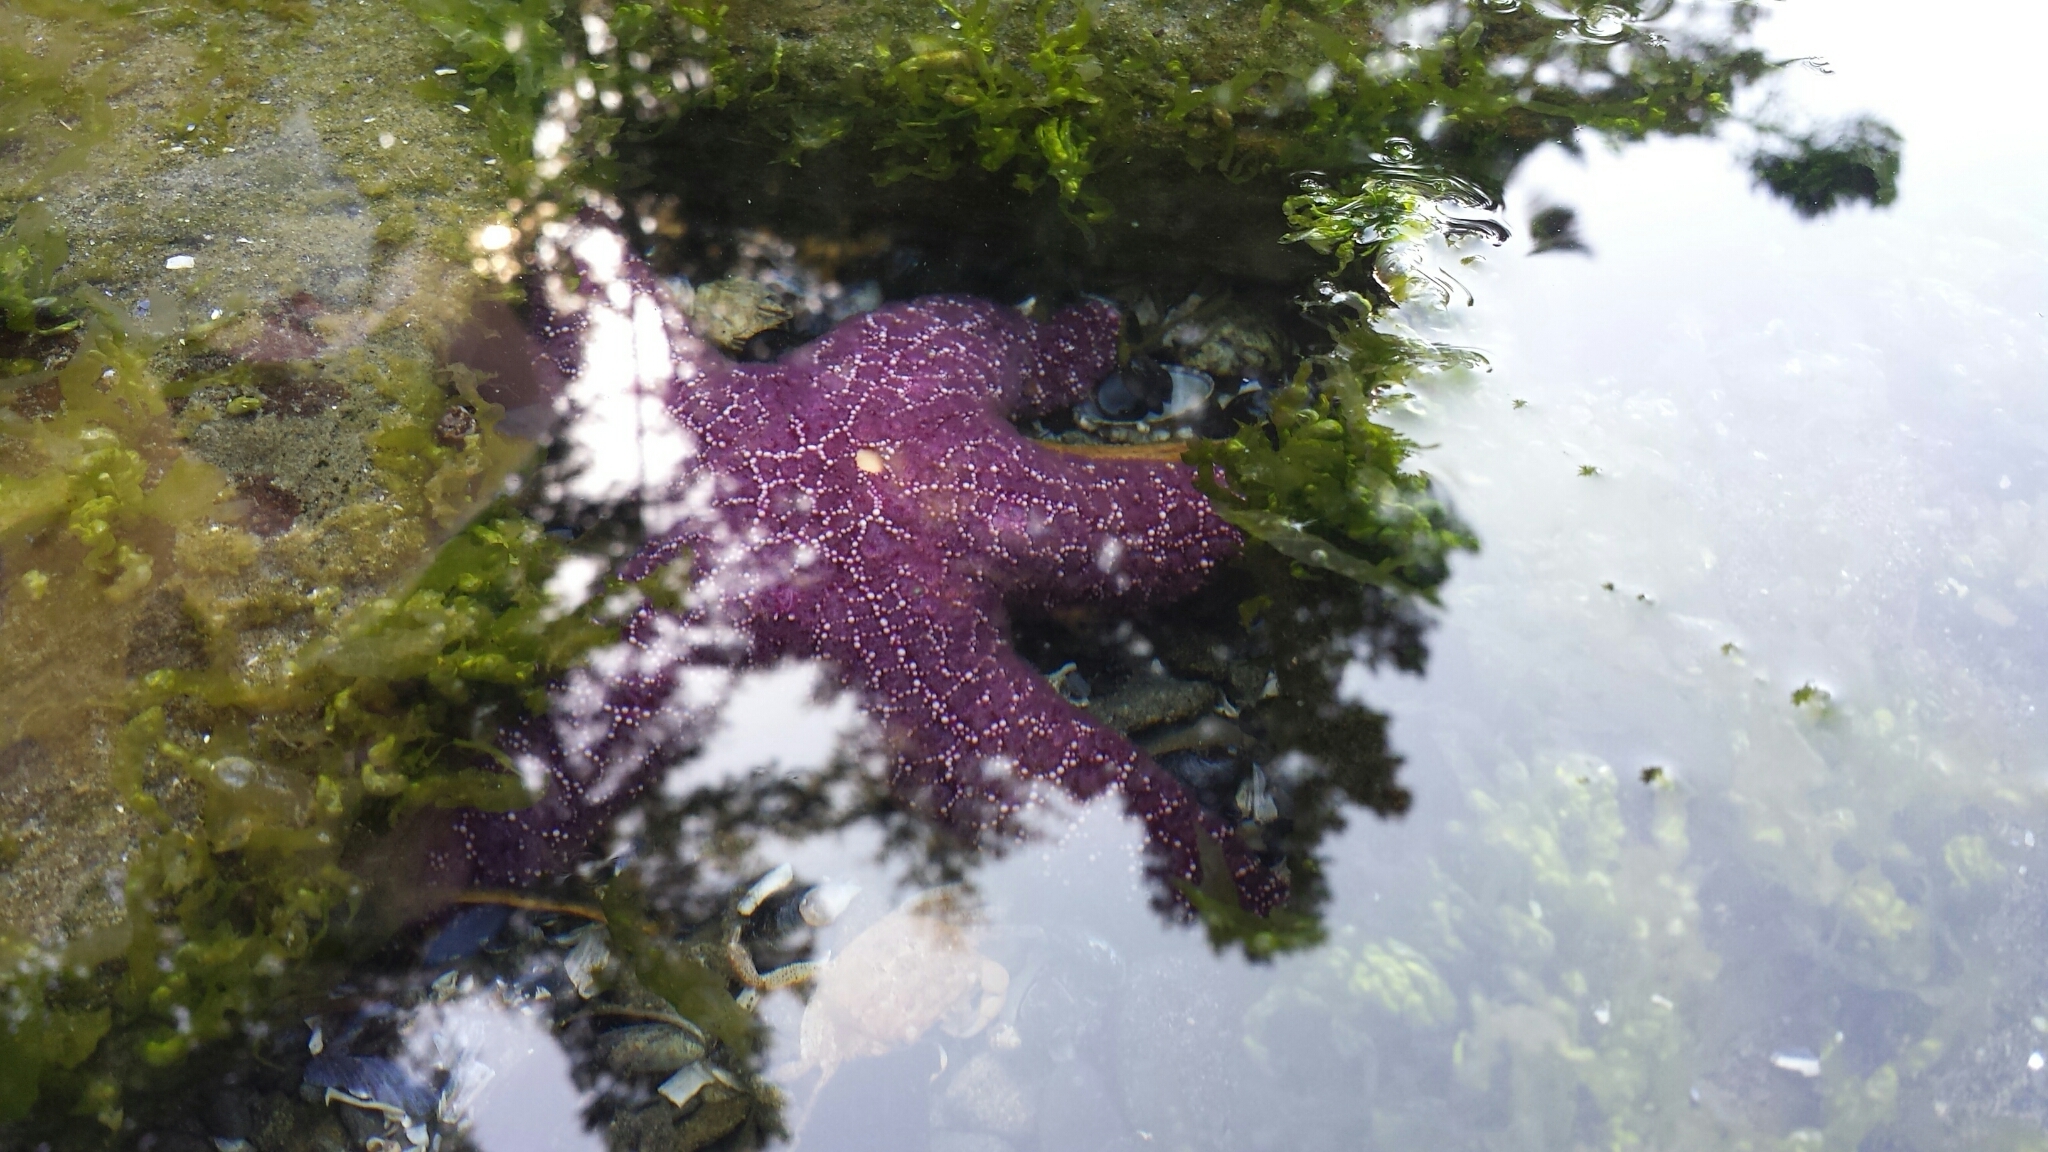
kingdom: Animalia
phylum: Echinodermata
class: Asteroidea
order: Forcipulatida
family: Asteriidae
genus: Pisaster
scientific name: Pisaster ochraceus
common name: Ochre stars
